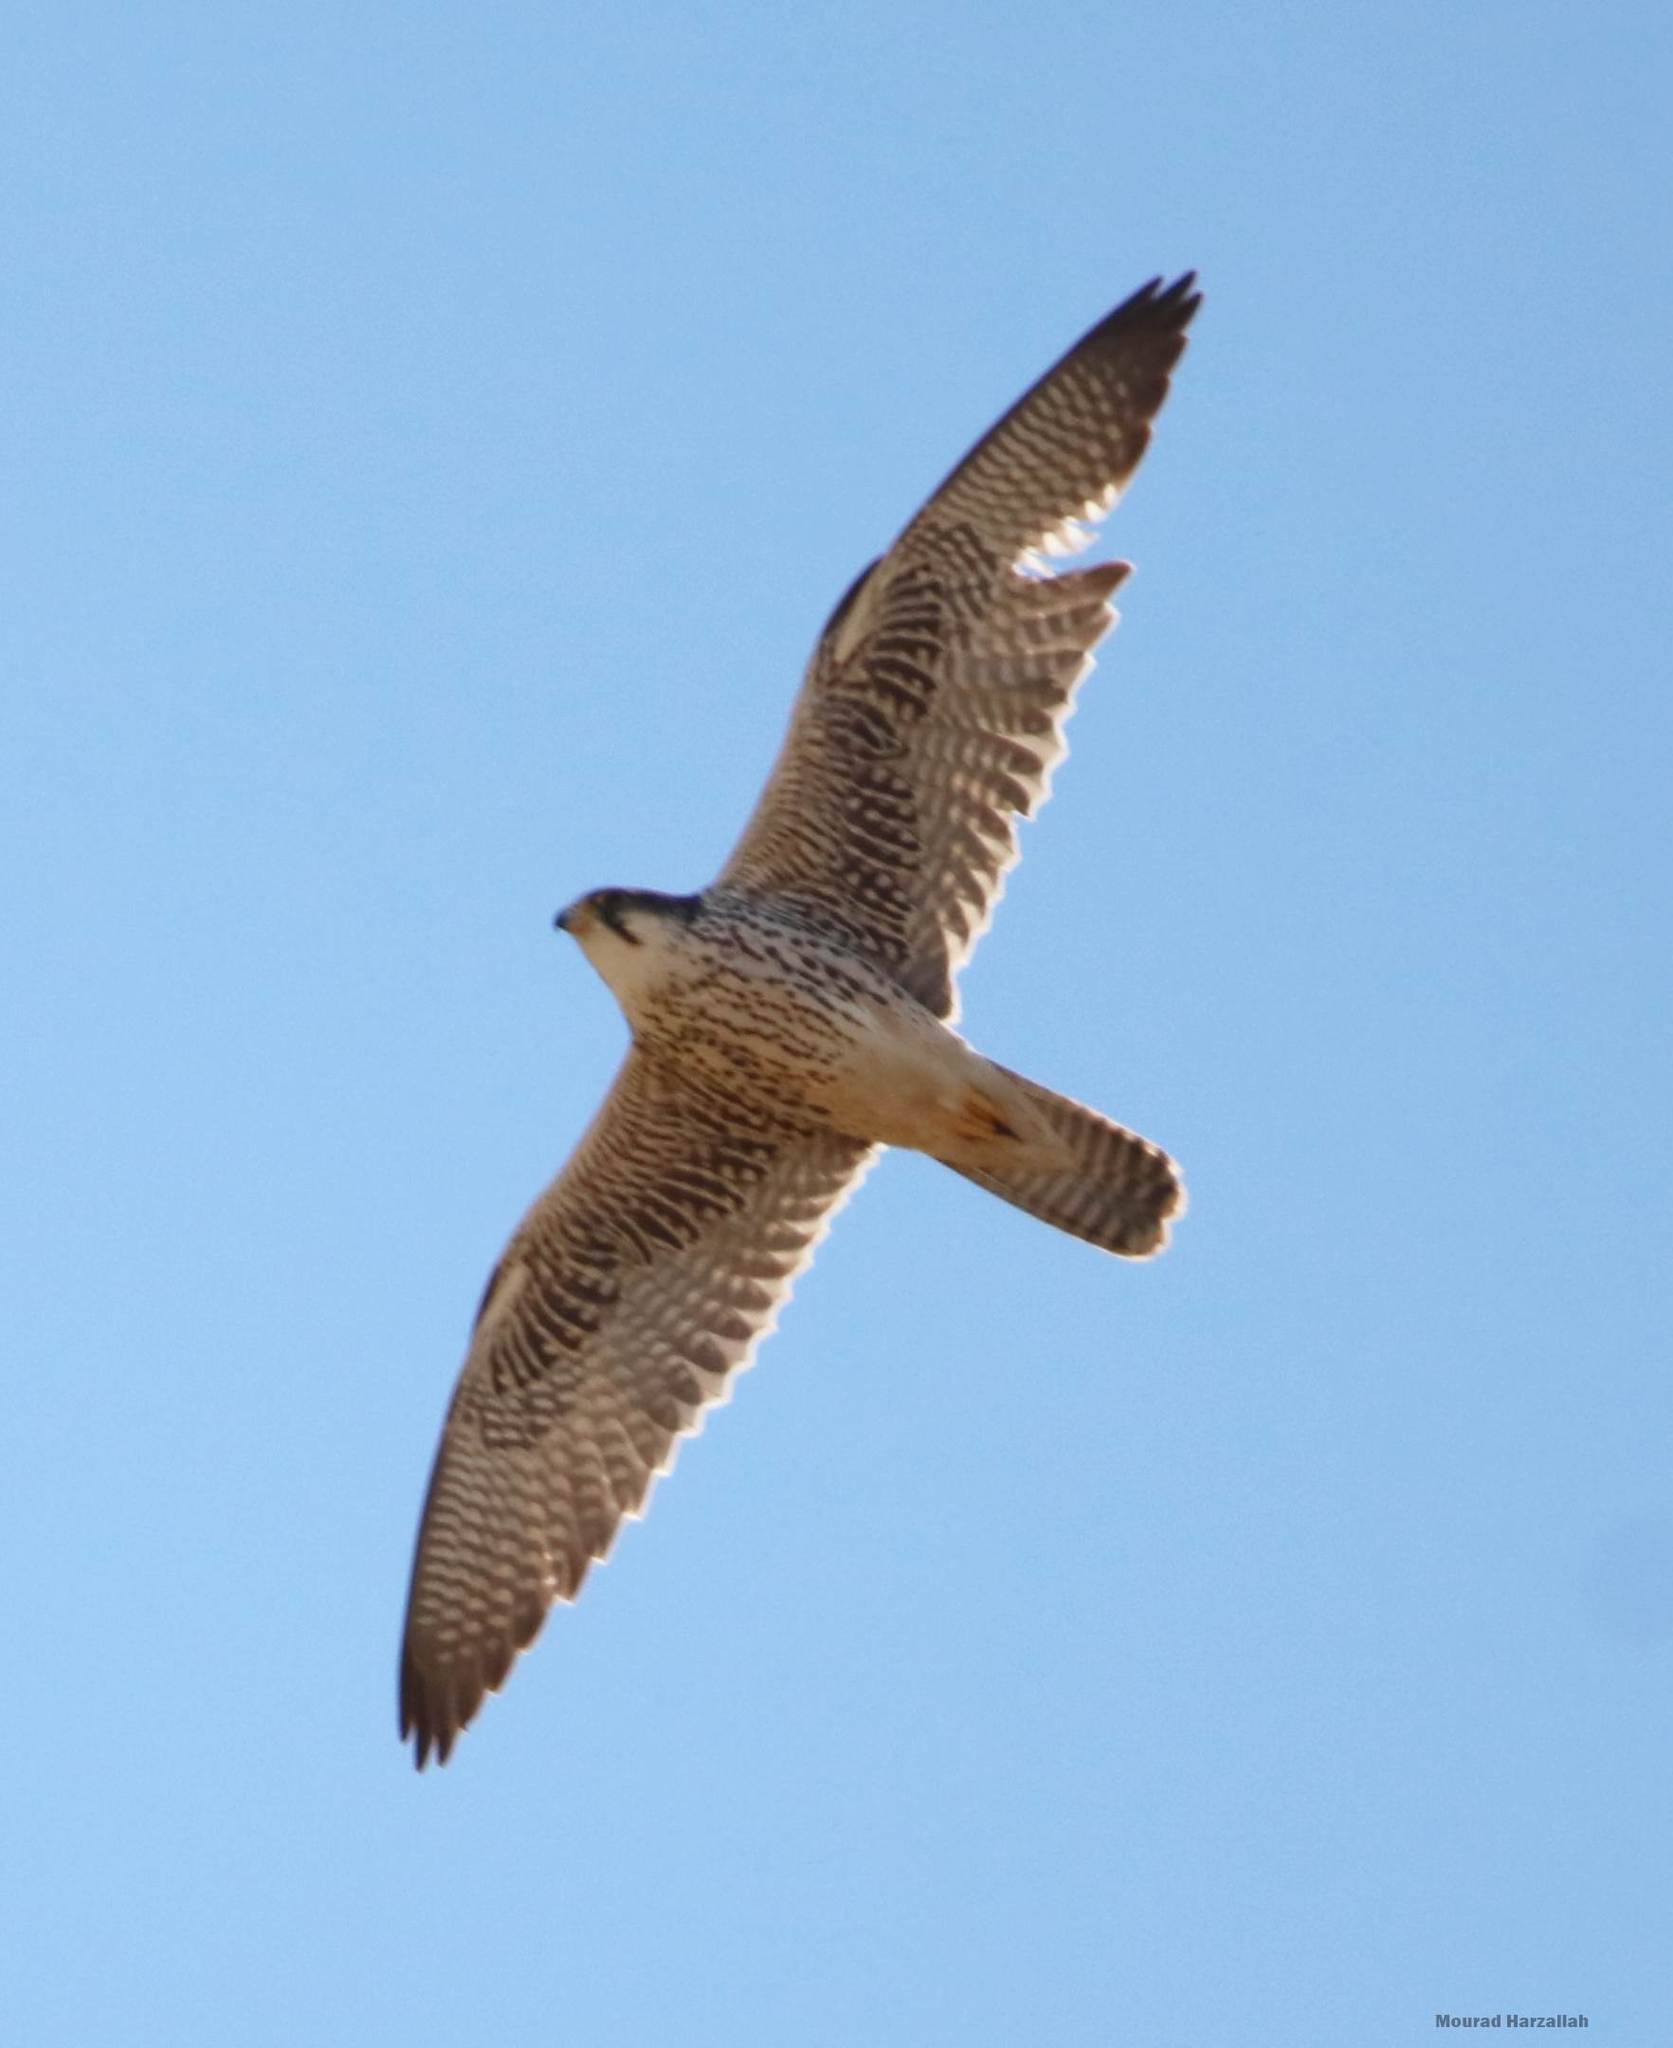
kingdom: Animalia
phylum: Chordata
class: Aves
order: Falconiformes
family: Falconidae
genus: Falco
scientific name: Falco biarmicus
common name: Lanner falcon
